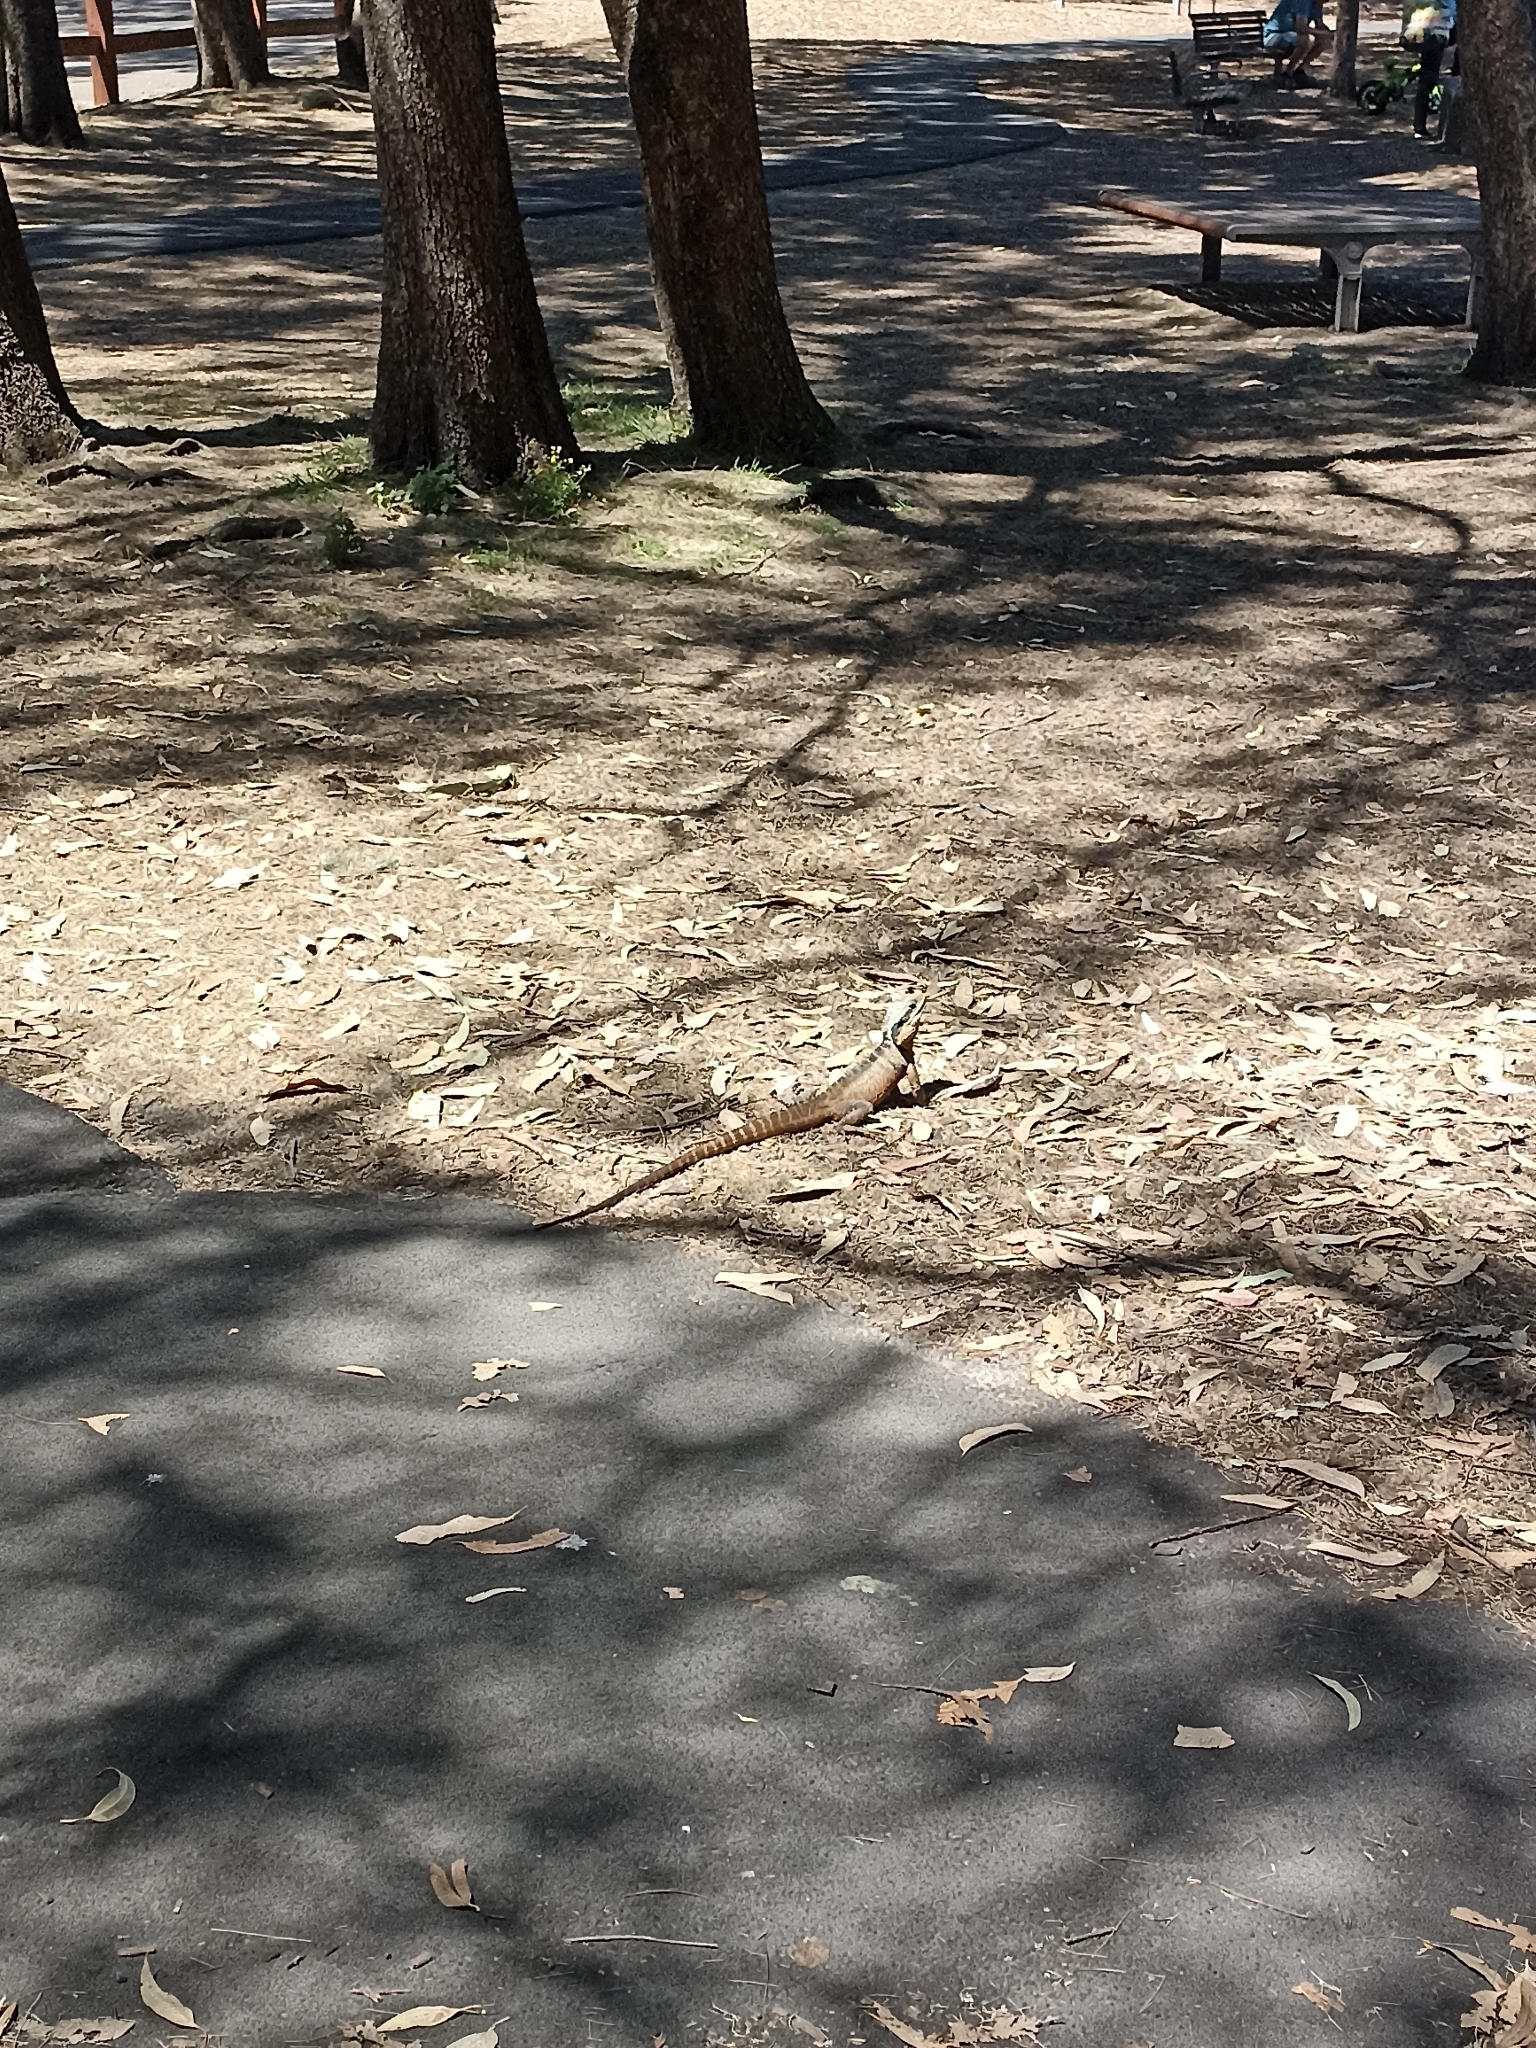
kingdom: Animalia
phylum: Chordata
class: Squamata
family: Agamidae
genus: Intellagama
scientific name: Intellagama lesueurii
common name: Eastern water dragon
